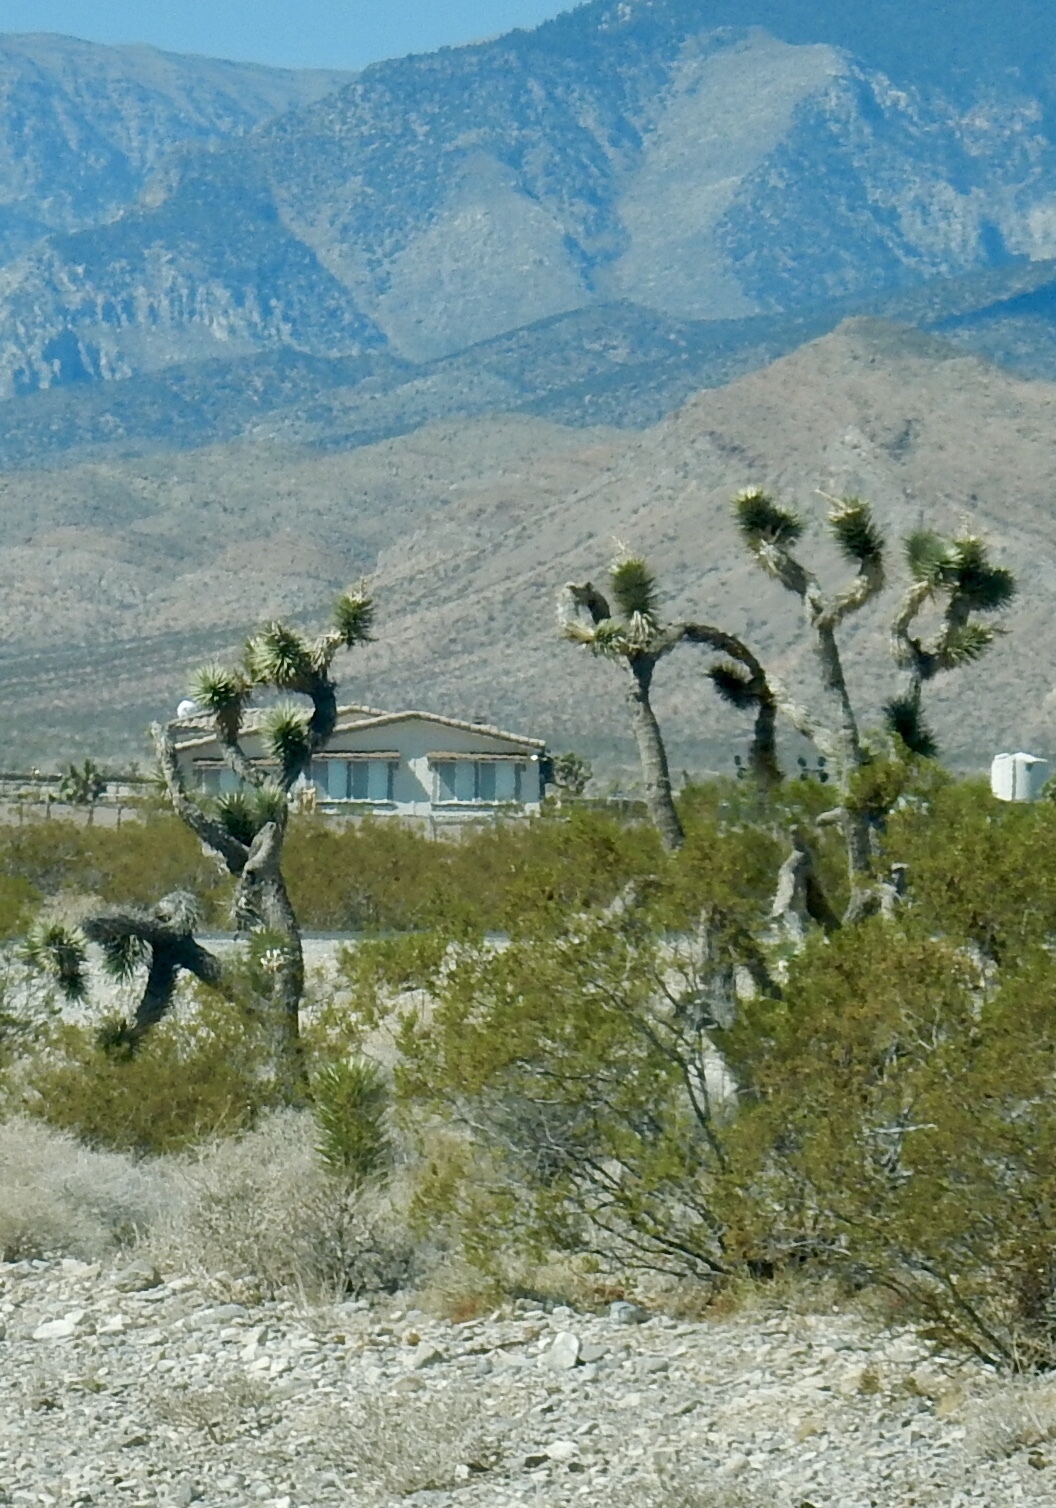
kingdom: Plantae
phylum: Tracheophyta
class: Liliopsida
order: Asparagales
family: Asparagaceae
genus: Yucca
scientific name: Yucca brevifolia
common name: Joshua tree
